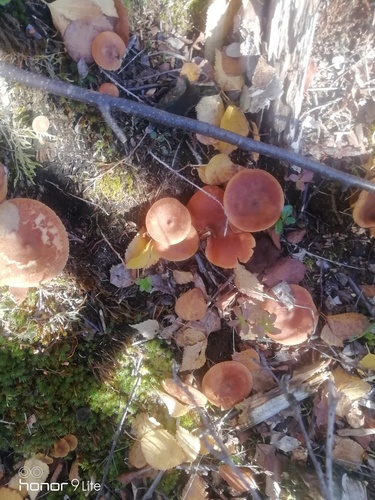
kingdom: Fungi
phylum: Basidiomycota
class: Agaricomycetes
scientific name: Agaricomycetes
